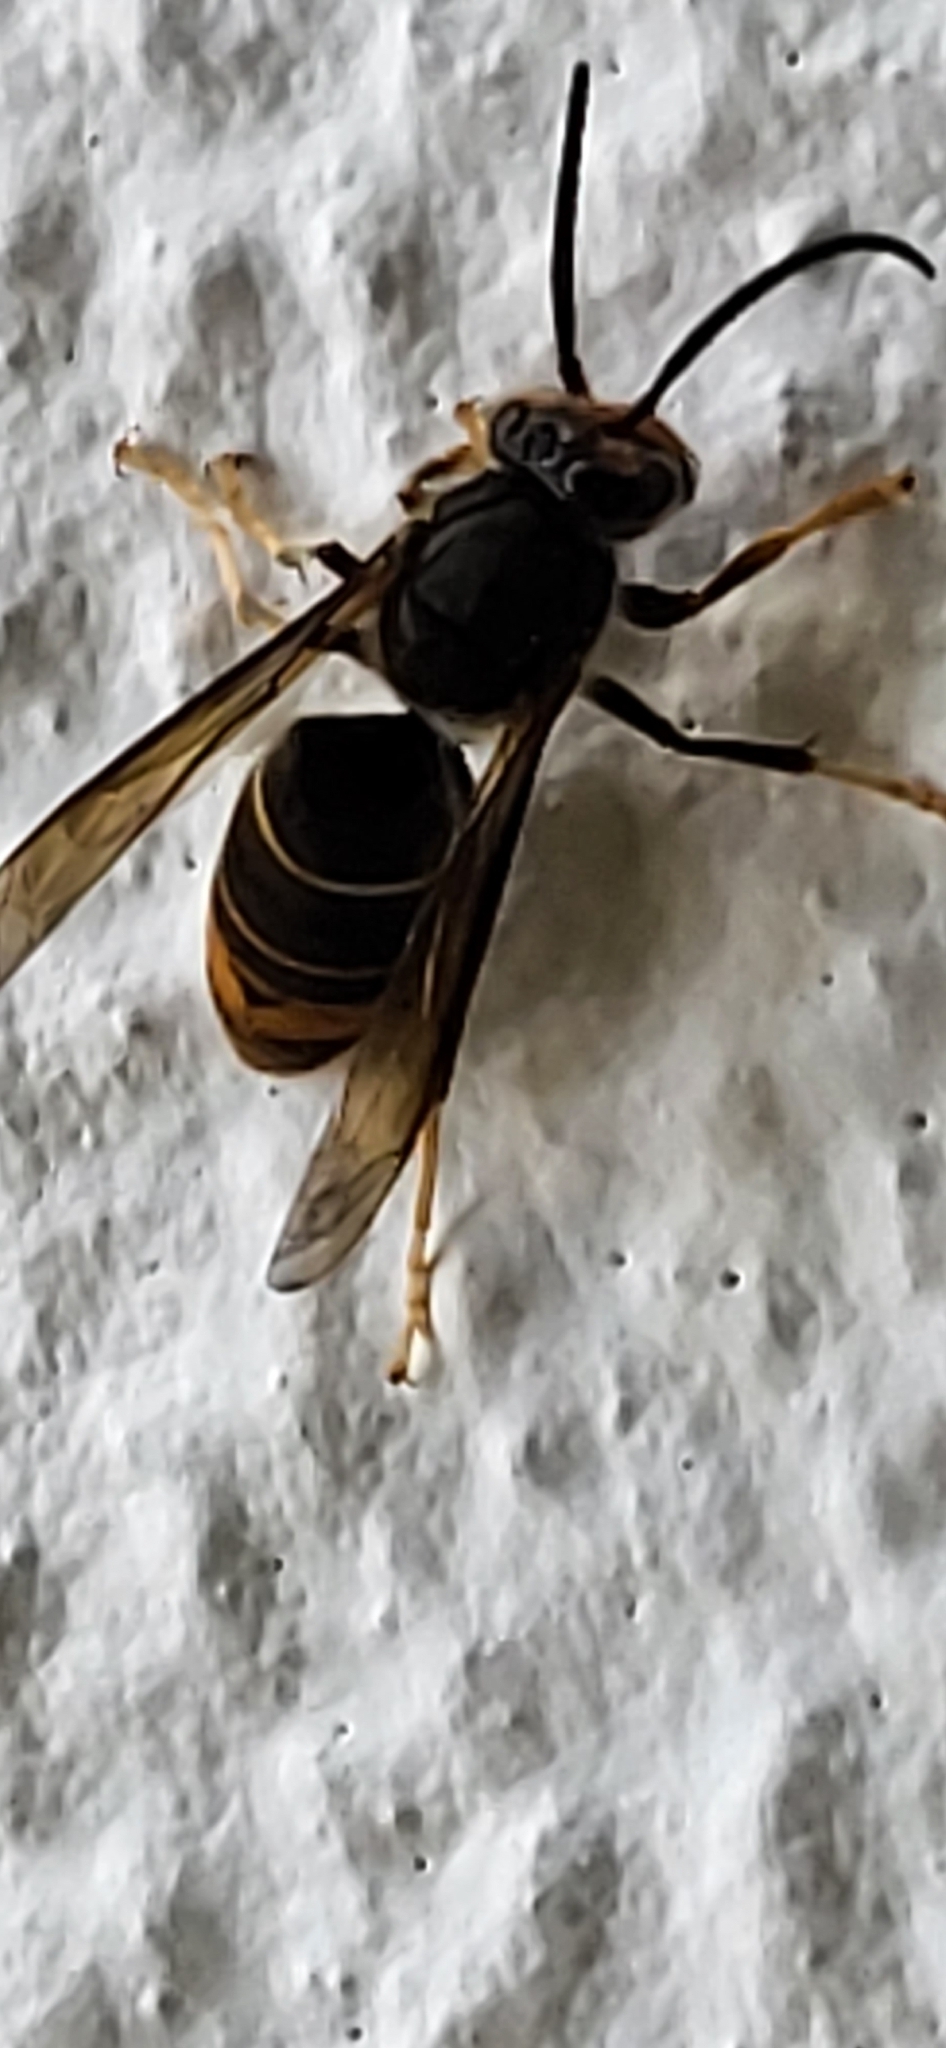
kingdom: Animalia
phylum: Arthropoda
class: Insecta
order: Hymenoptera
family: Vespidae
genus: Vespa
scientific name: Vespa velutina
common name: Asian hornet
